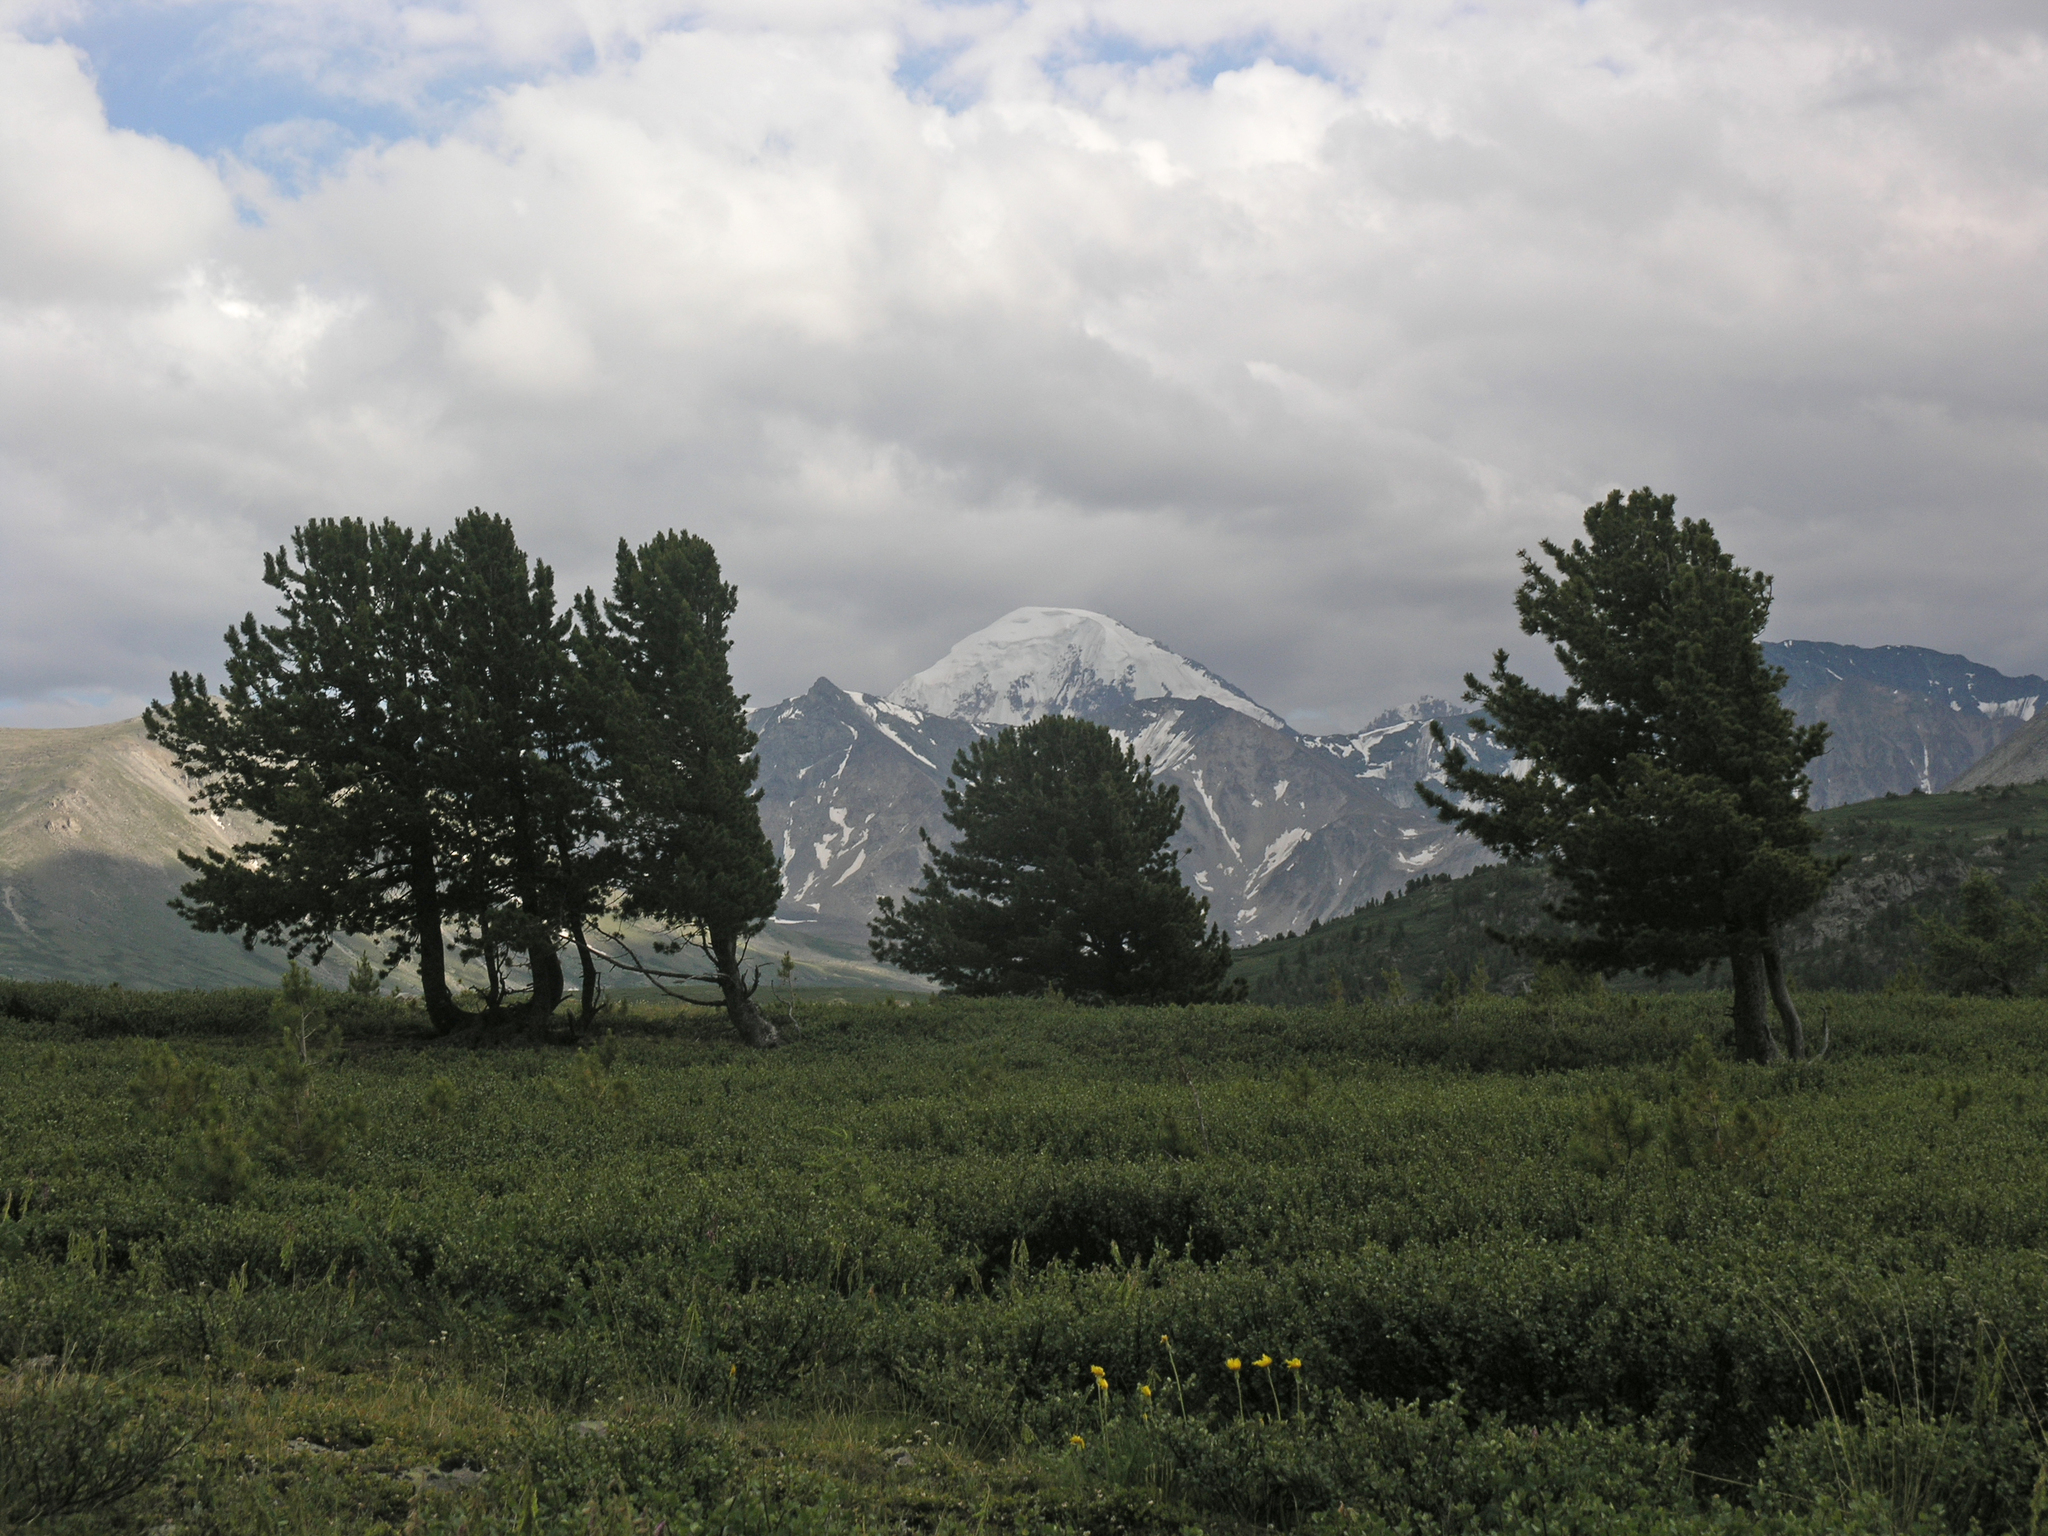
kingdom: Plantae
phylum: Tracheophyta
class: Pinopsida
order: Pinales
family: Pinaceae
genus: Pinus
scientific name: Pinus sibirica
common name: Siberian pine
